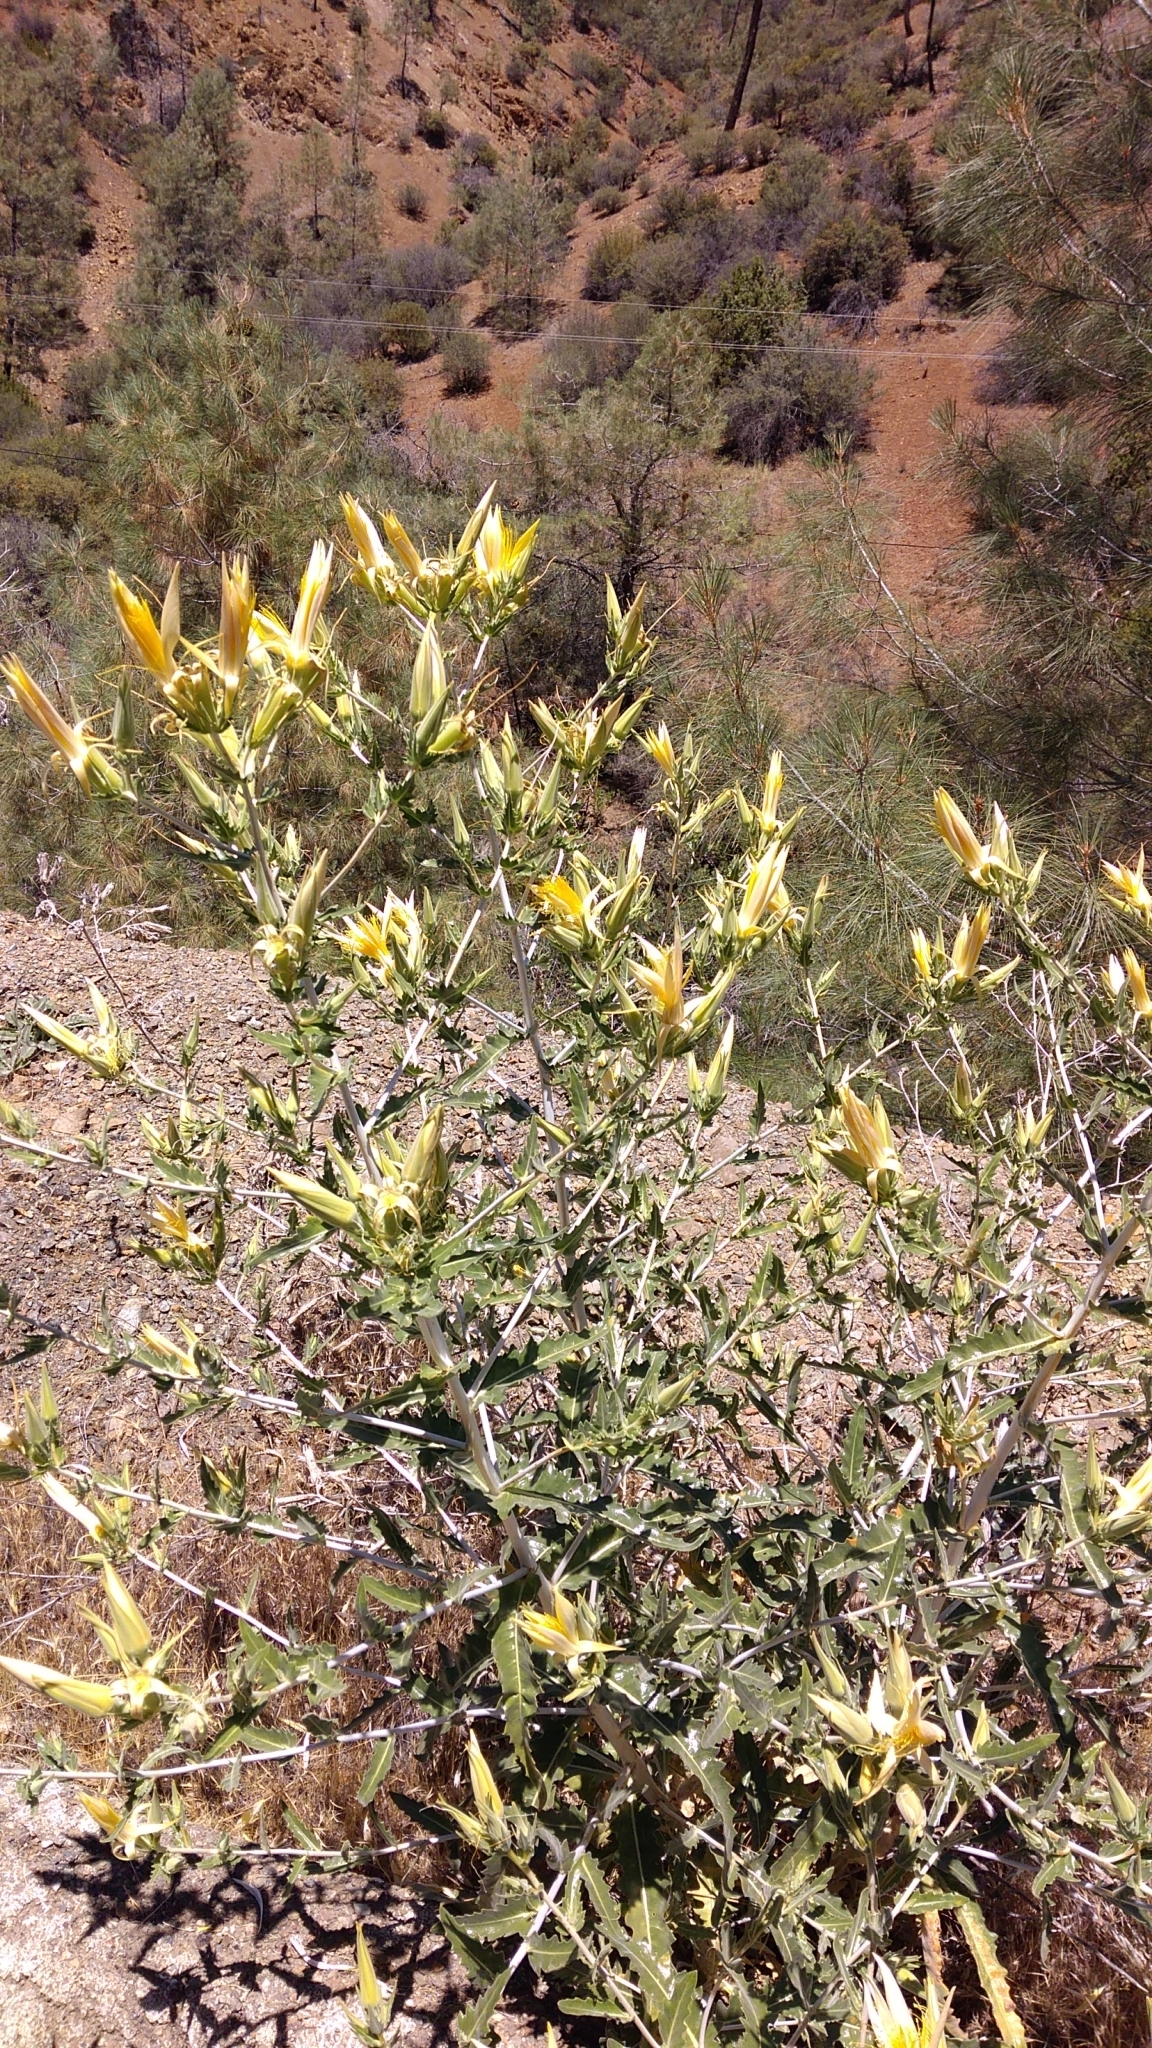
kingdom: Plantae
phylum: Tracheophyta
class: Magnoliopsida
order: Cornales
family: Loasaceae
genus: Mentzelia
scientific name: Mentzelia laevicaulis
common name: Smooth-stem blazingstar
